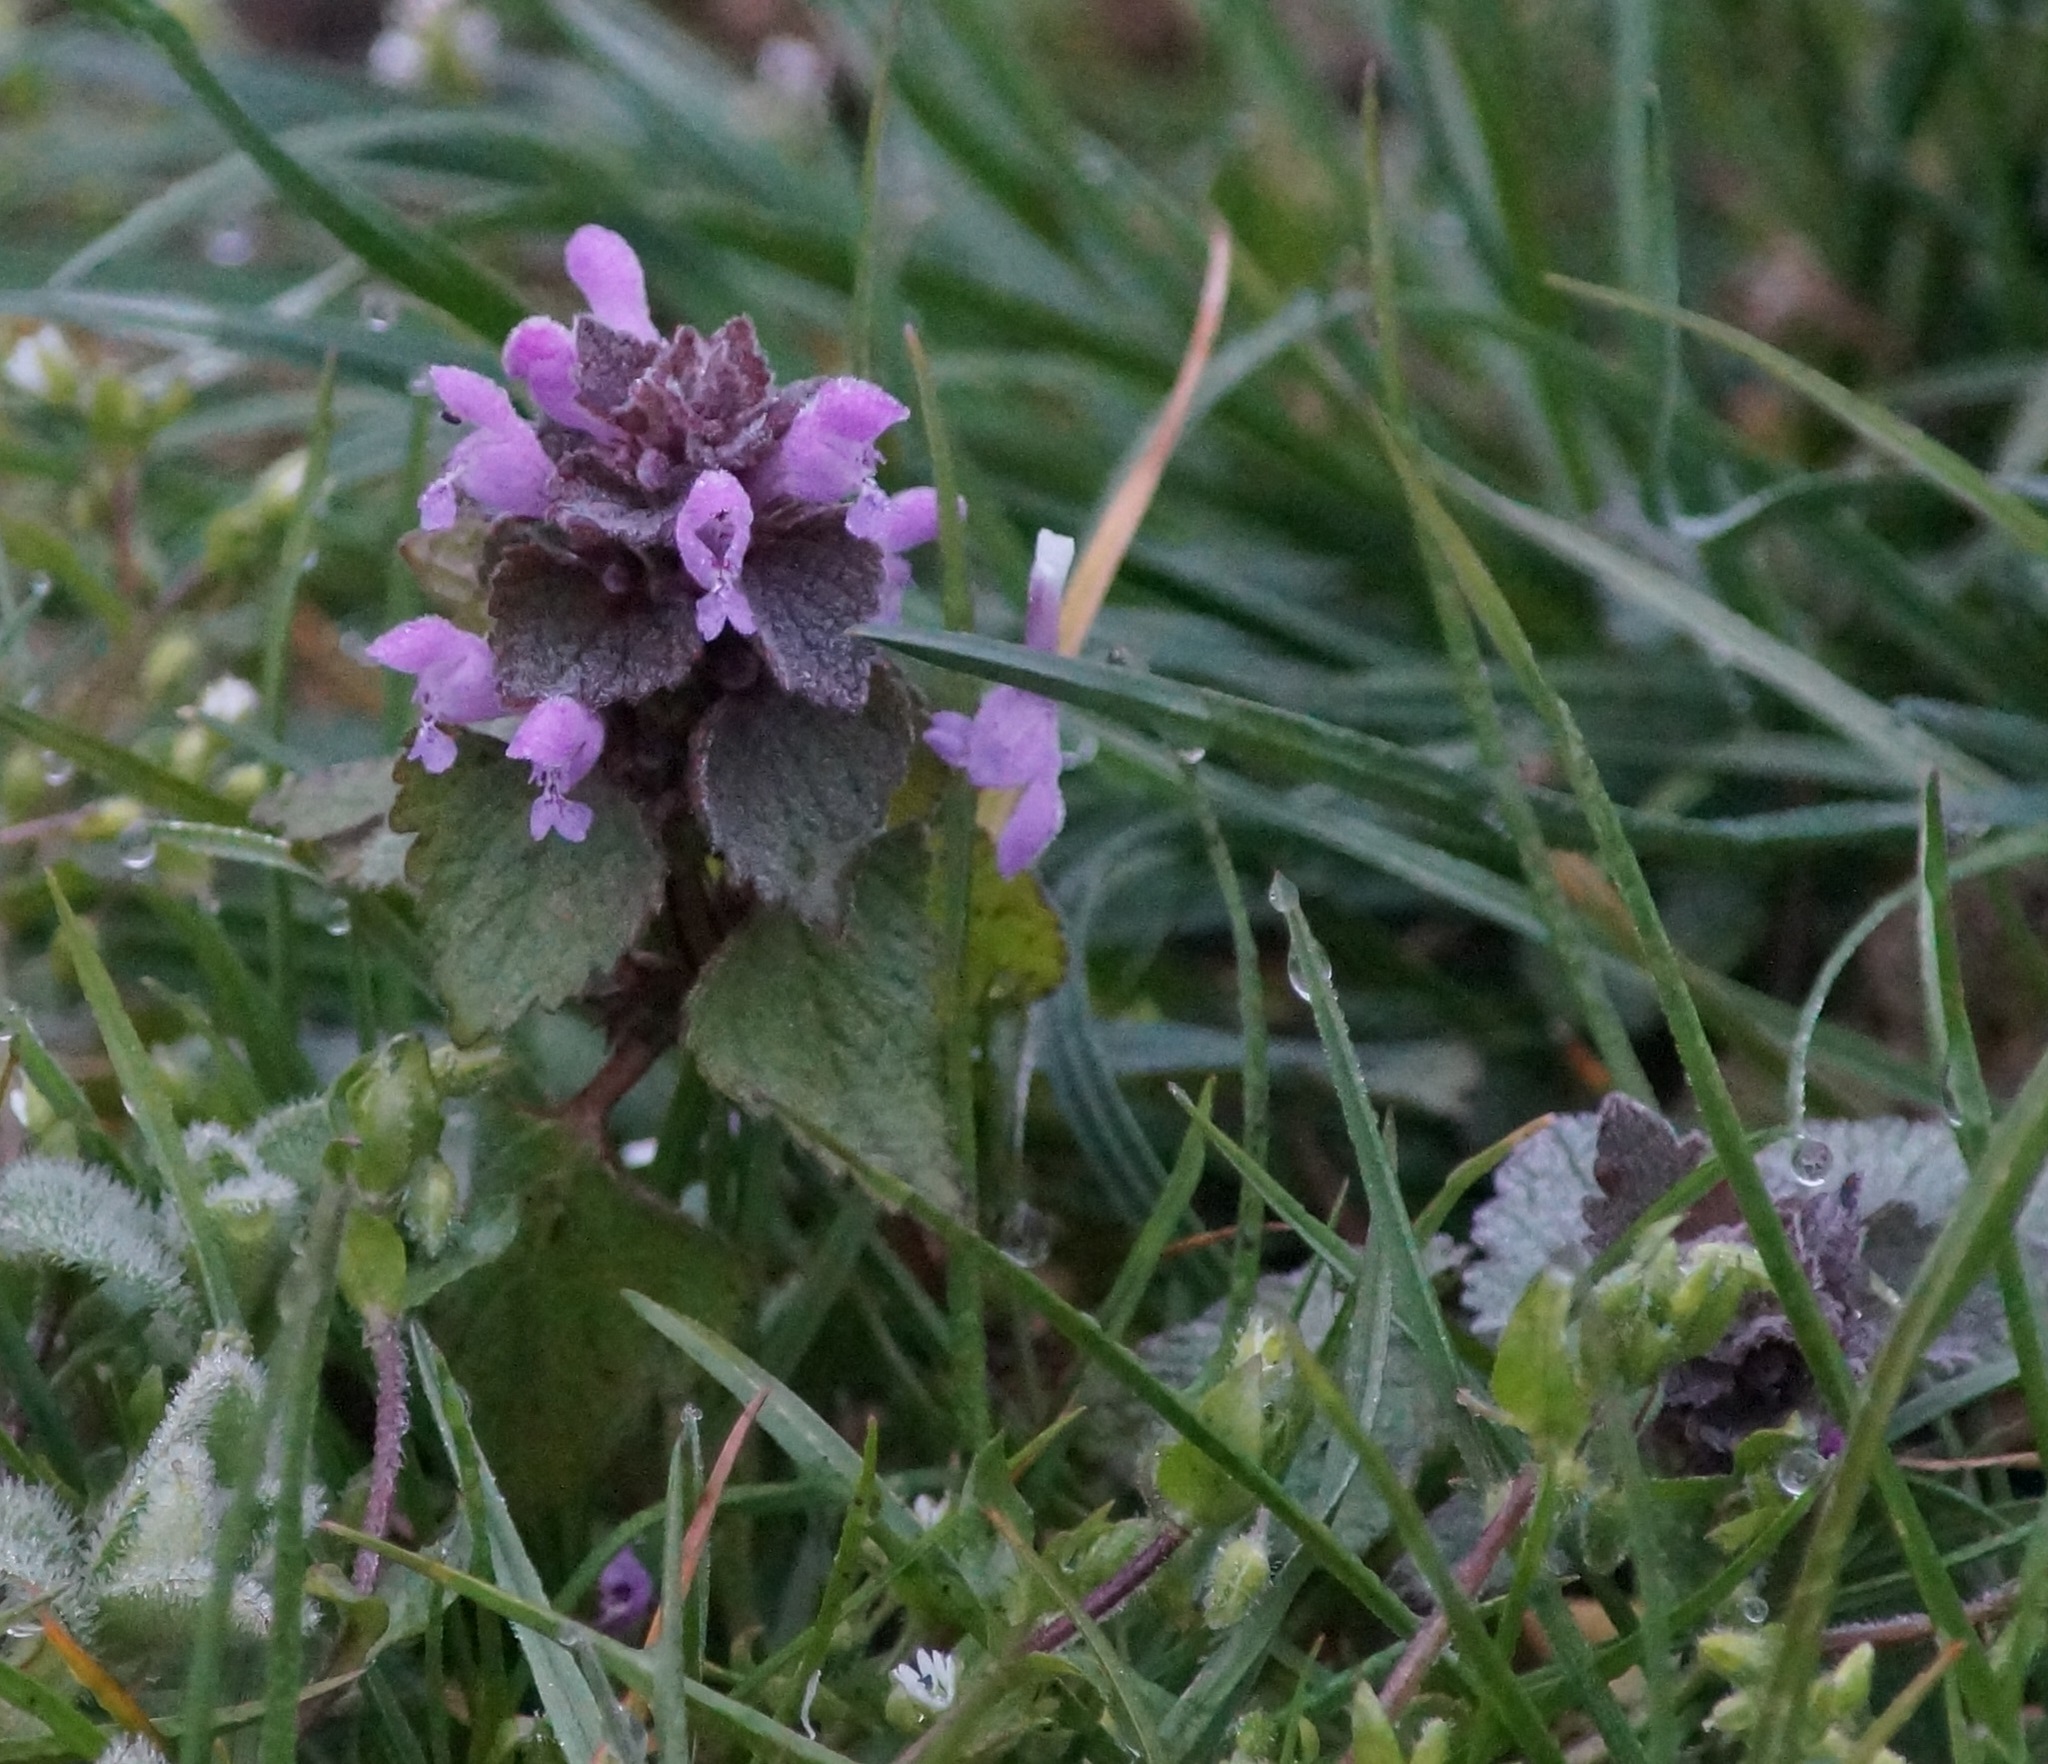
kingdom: Plantae
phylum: Tracheophyta
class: Magnoliopsida
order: Lamiales
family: Lamiaceae
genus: Lamium
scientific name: Lamium purpureum
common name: Red dead-nettle
